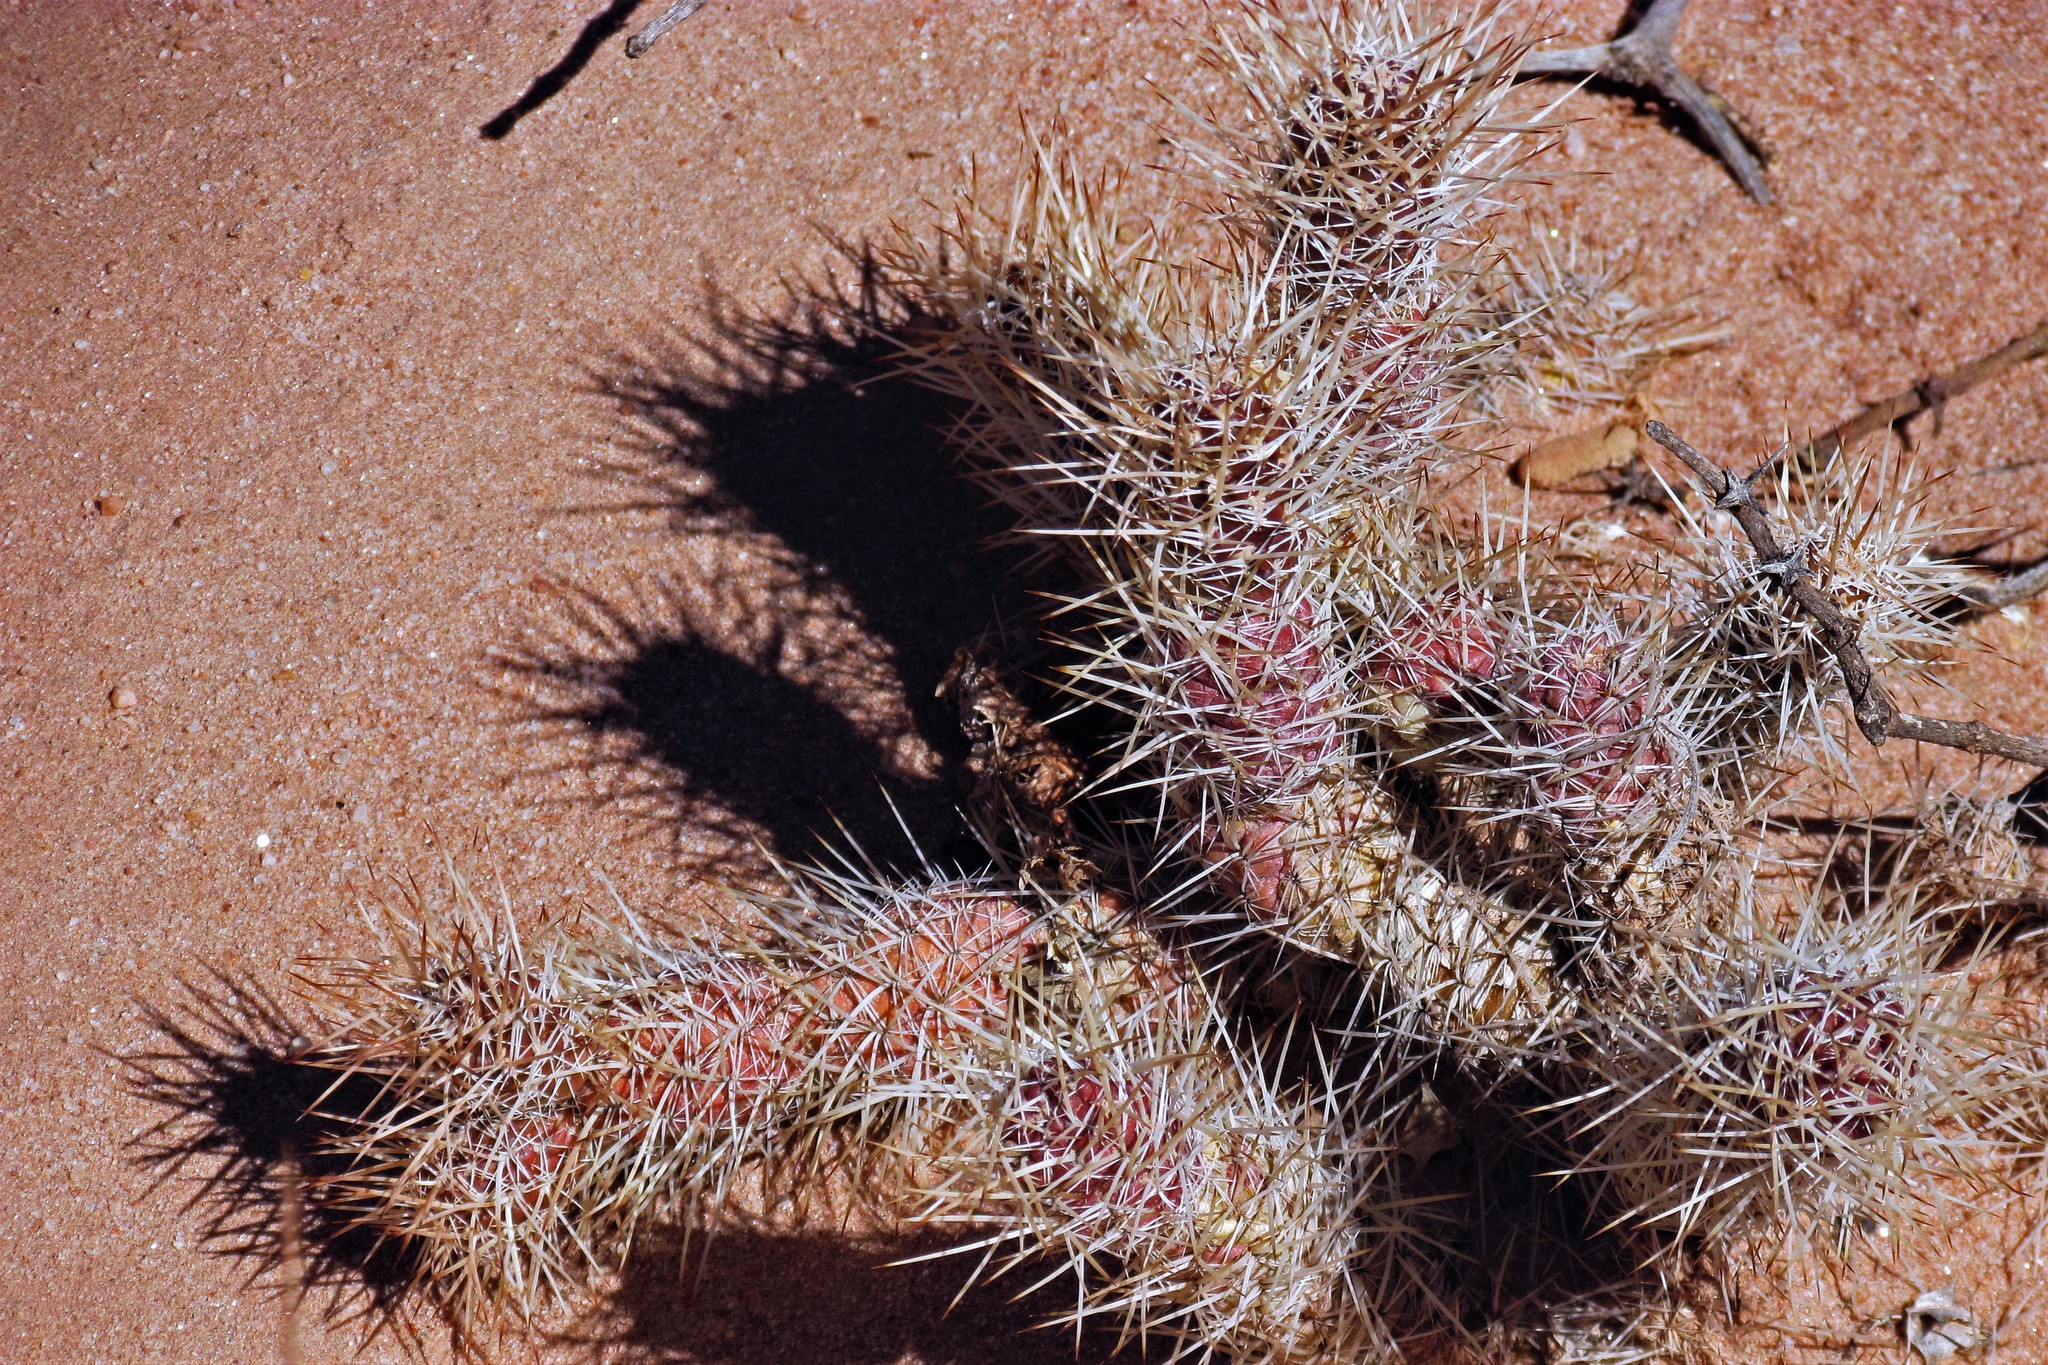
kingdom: Plantae
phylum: Tracheophyta
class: Magnoliopsida
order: Caryophyllales
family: Cactaceae
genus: Tephrocactus
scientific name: Tephrocactus weberi
